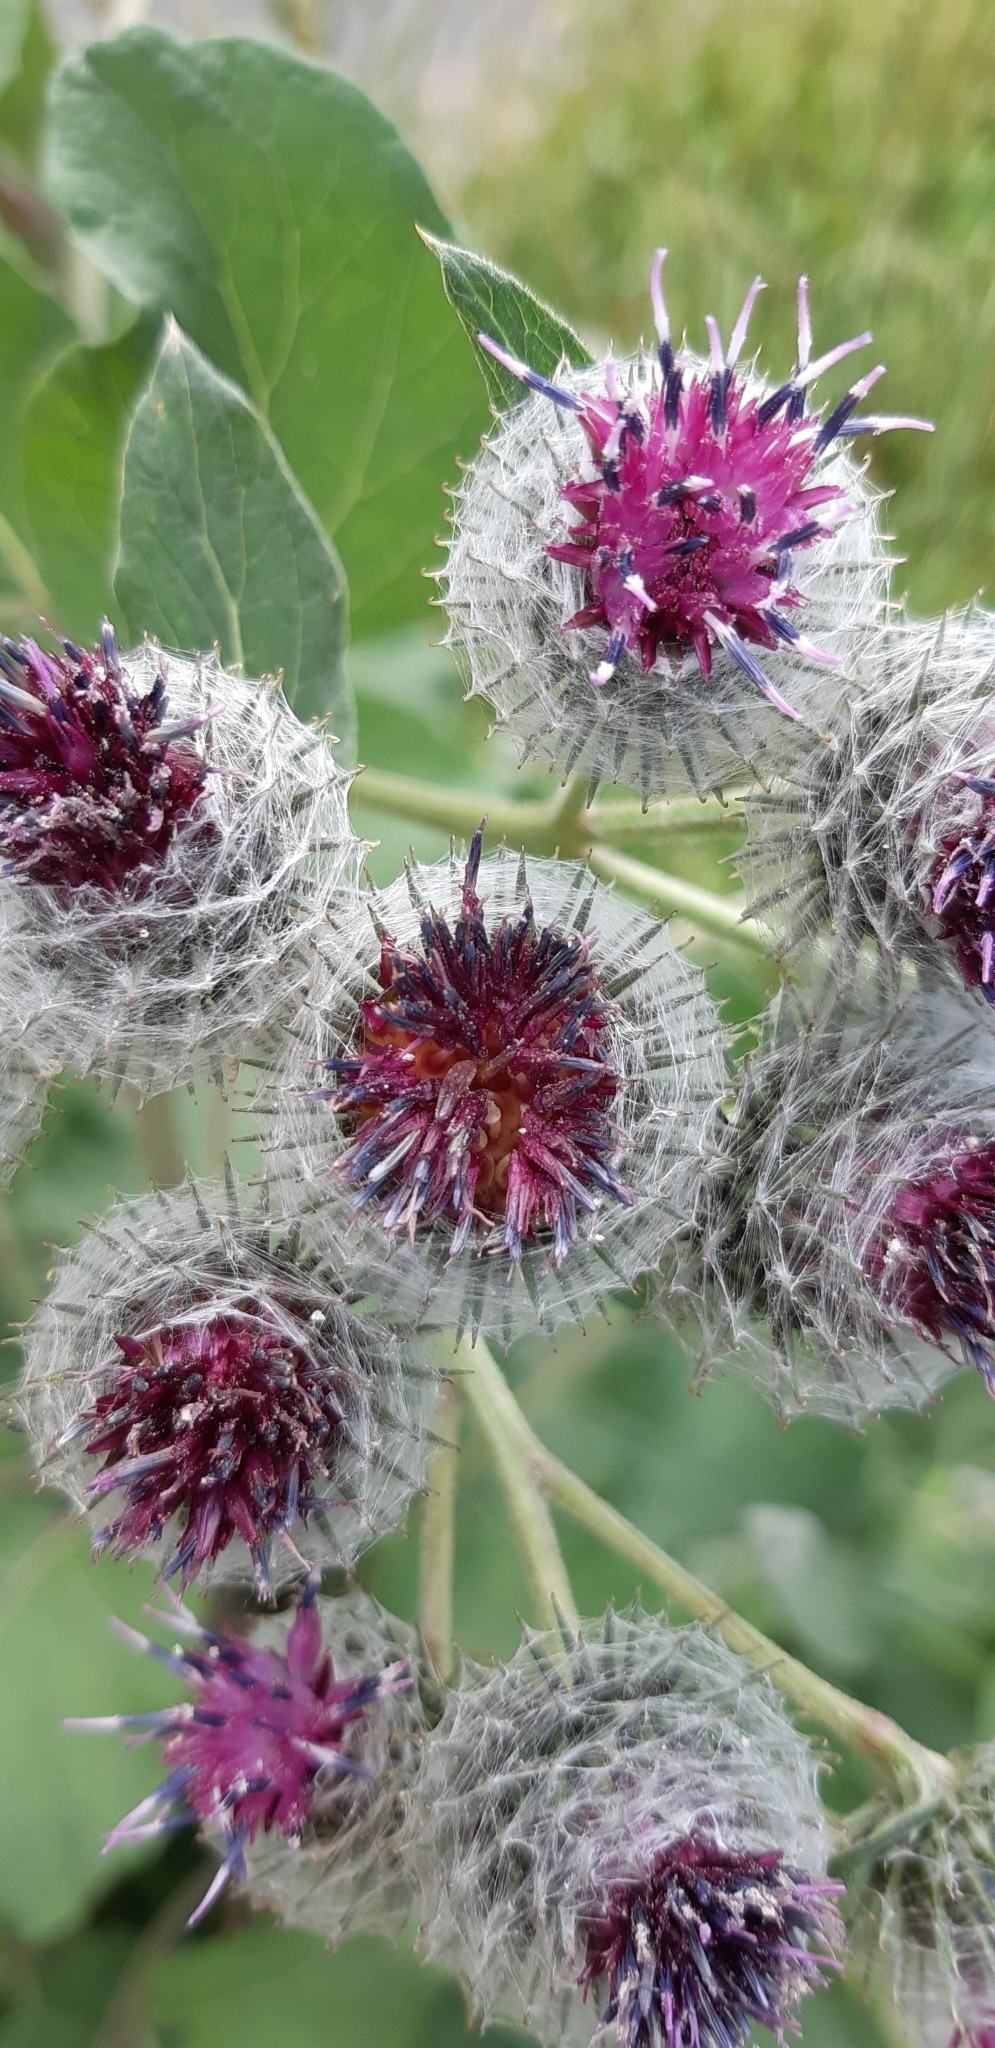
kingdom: Plantae
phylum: Tracheophyta
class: Magnoliopsida
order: Asterales
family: Asteraceae
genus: Arctium
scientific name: Arctium tomentosum
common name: Woolly burdock
